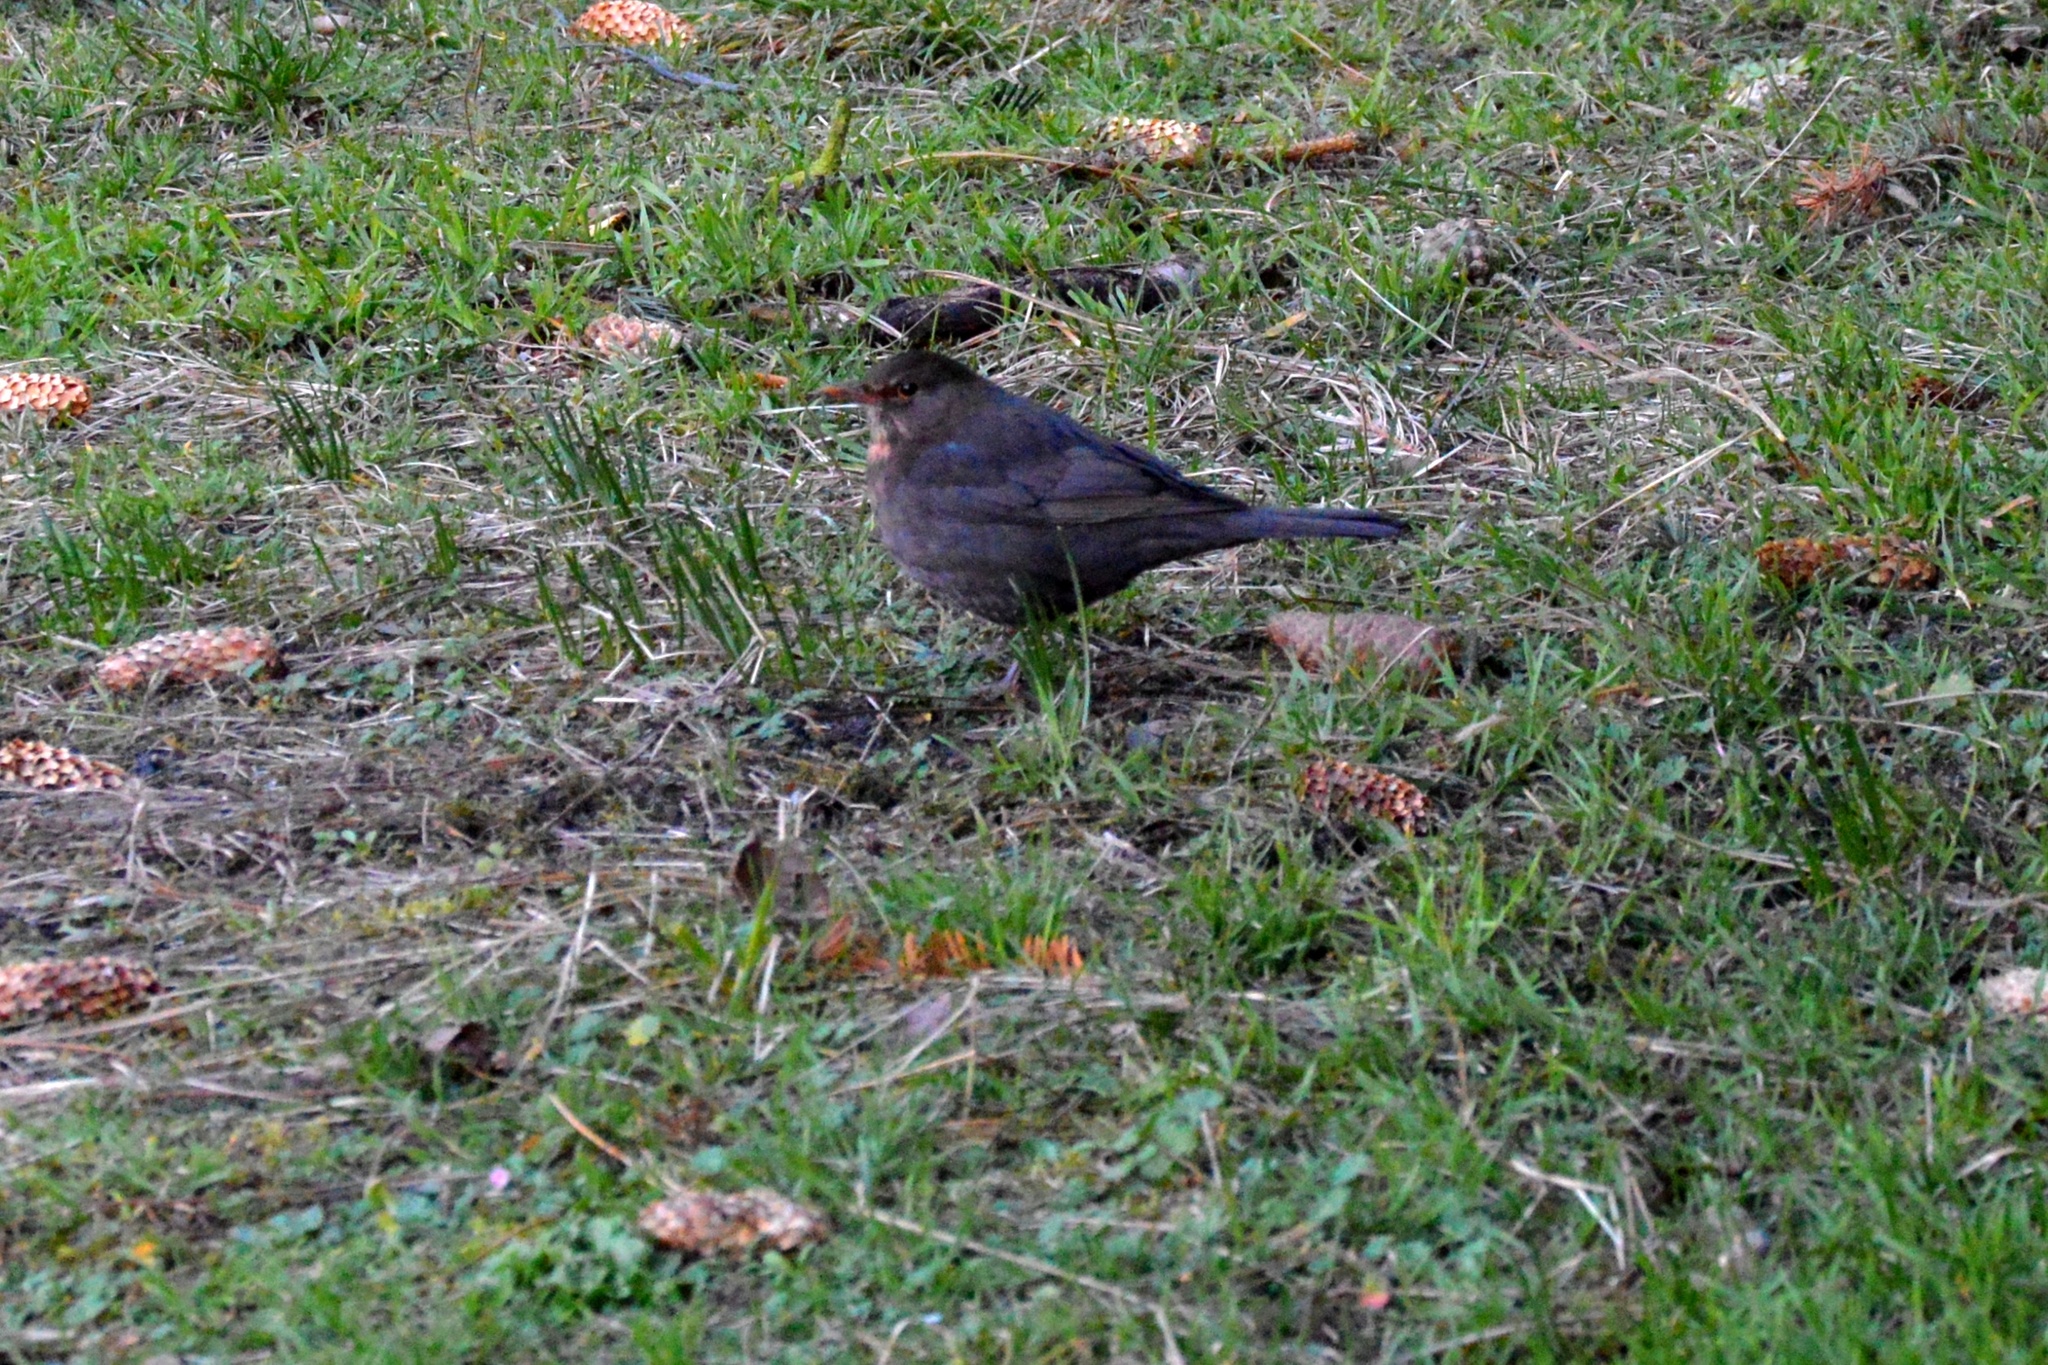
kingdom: Animalia
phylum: Chordata
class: Aves
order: Passeriformes
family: Turdidae
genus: Turdus
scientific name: Turdus merula
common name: Common blackbird
